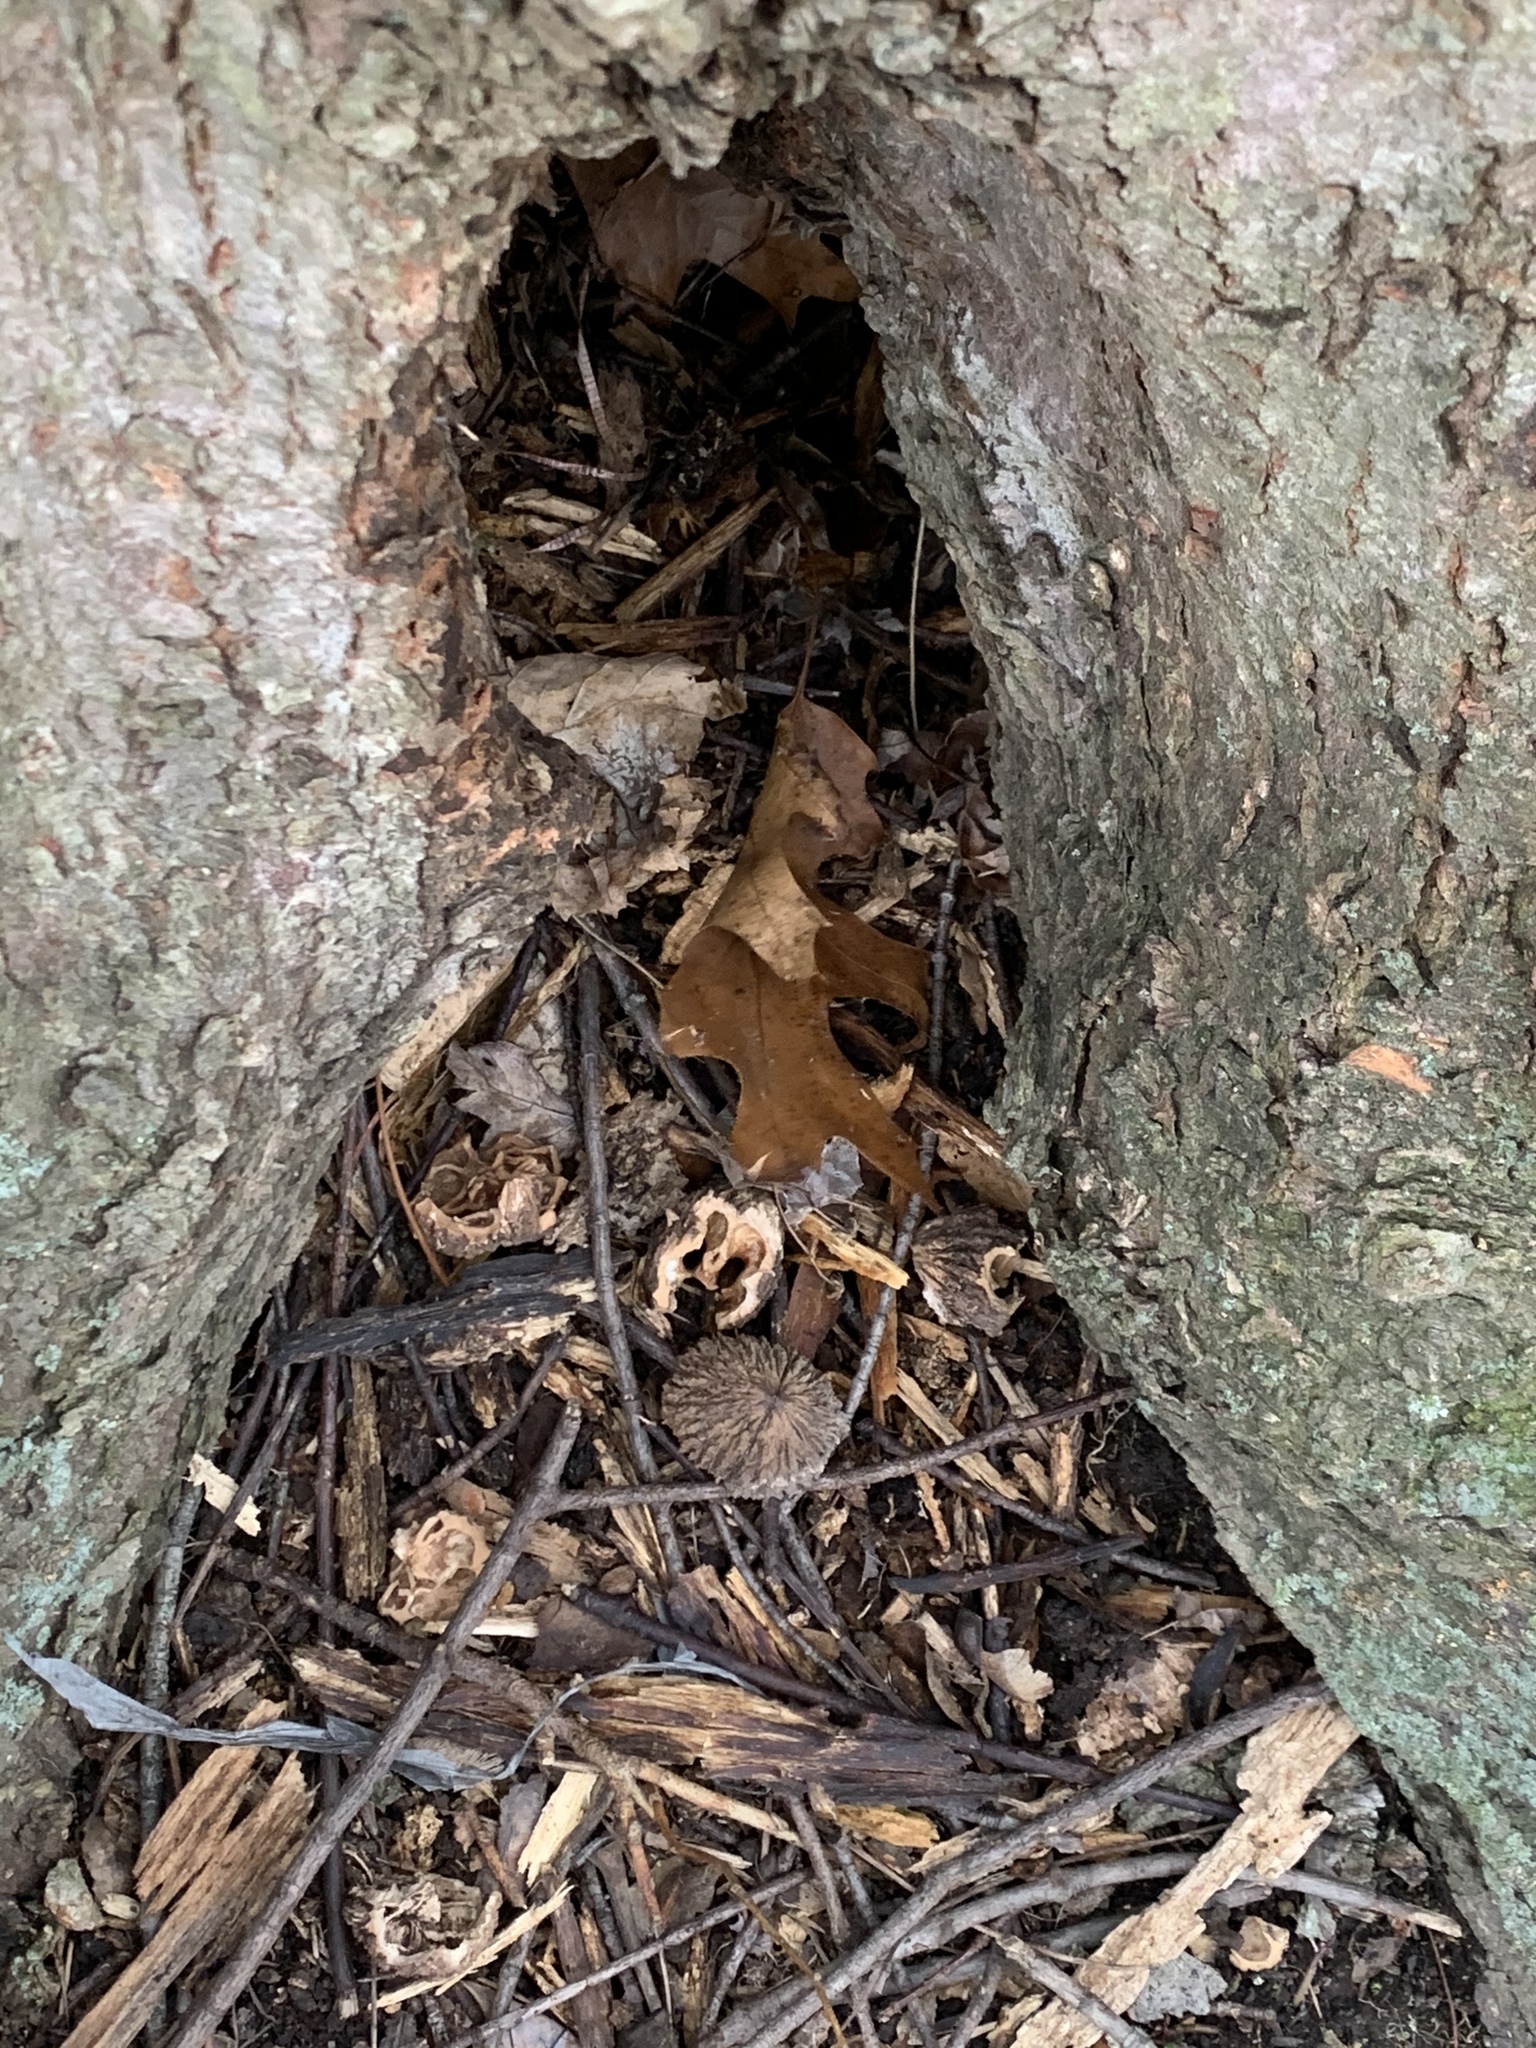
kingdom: Plantae
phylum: Tracheophyta
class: Magnoliopsida
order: Fagales
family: Juglandaceae
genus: Juglans
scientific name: Juglans nigra
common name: Black walnut
